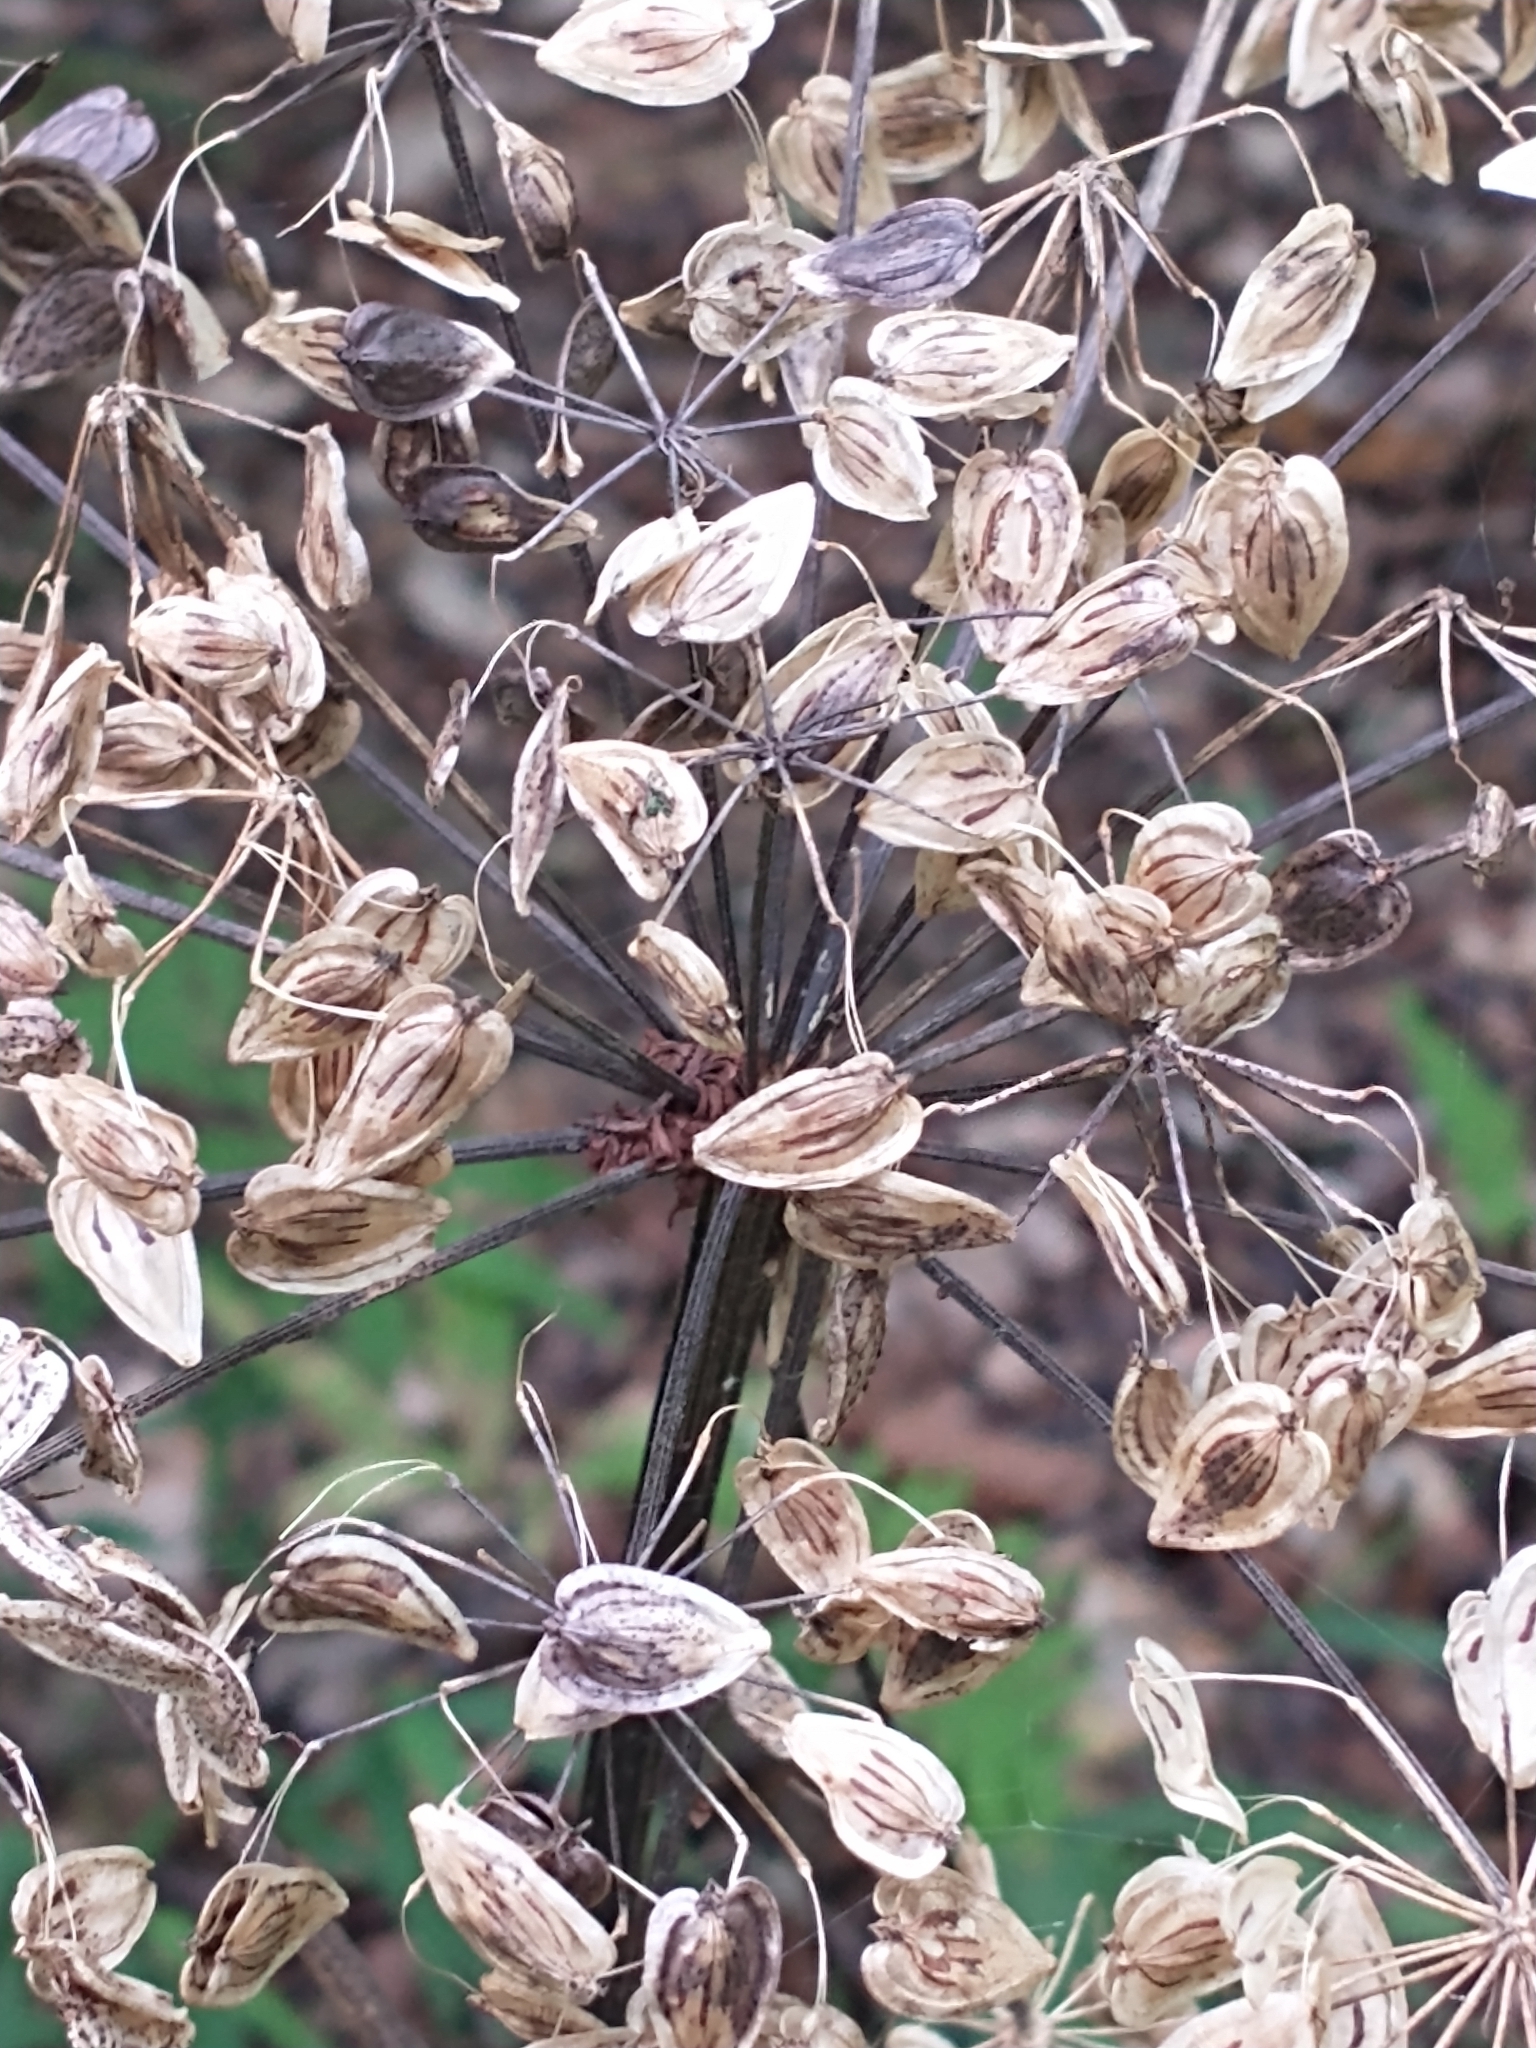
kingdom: Plantae
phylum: Tracheophyta
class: Magnoliopsida
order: Apiales
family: Apiaceae
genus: Heracleum
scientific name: Heracleum maximum
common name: American cow parsnip
